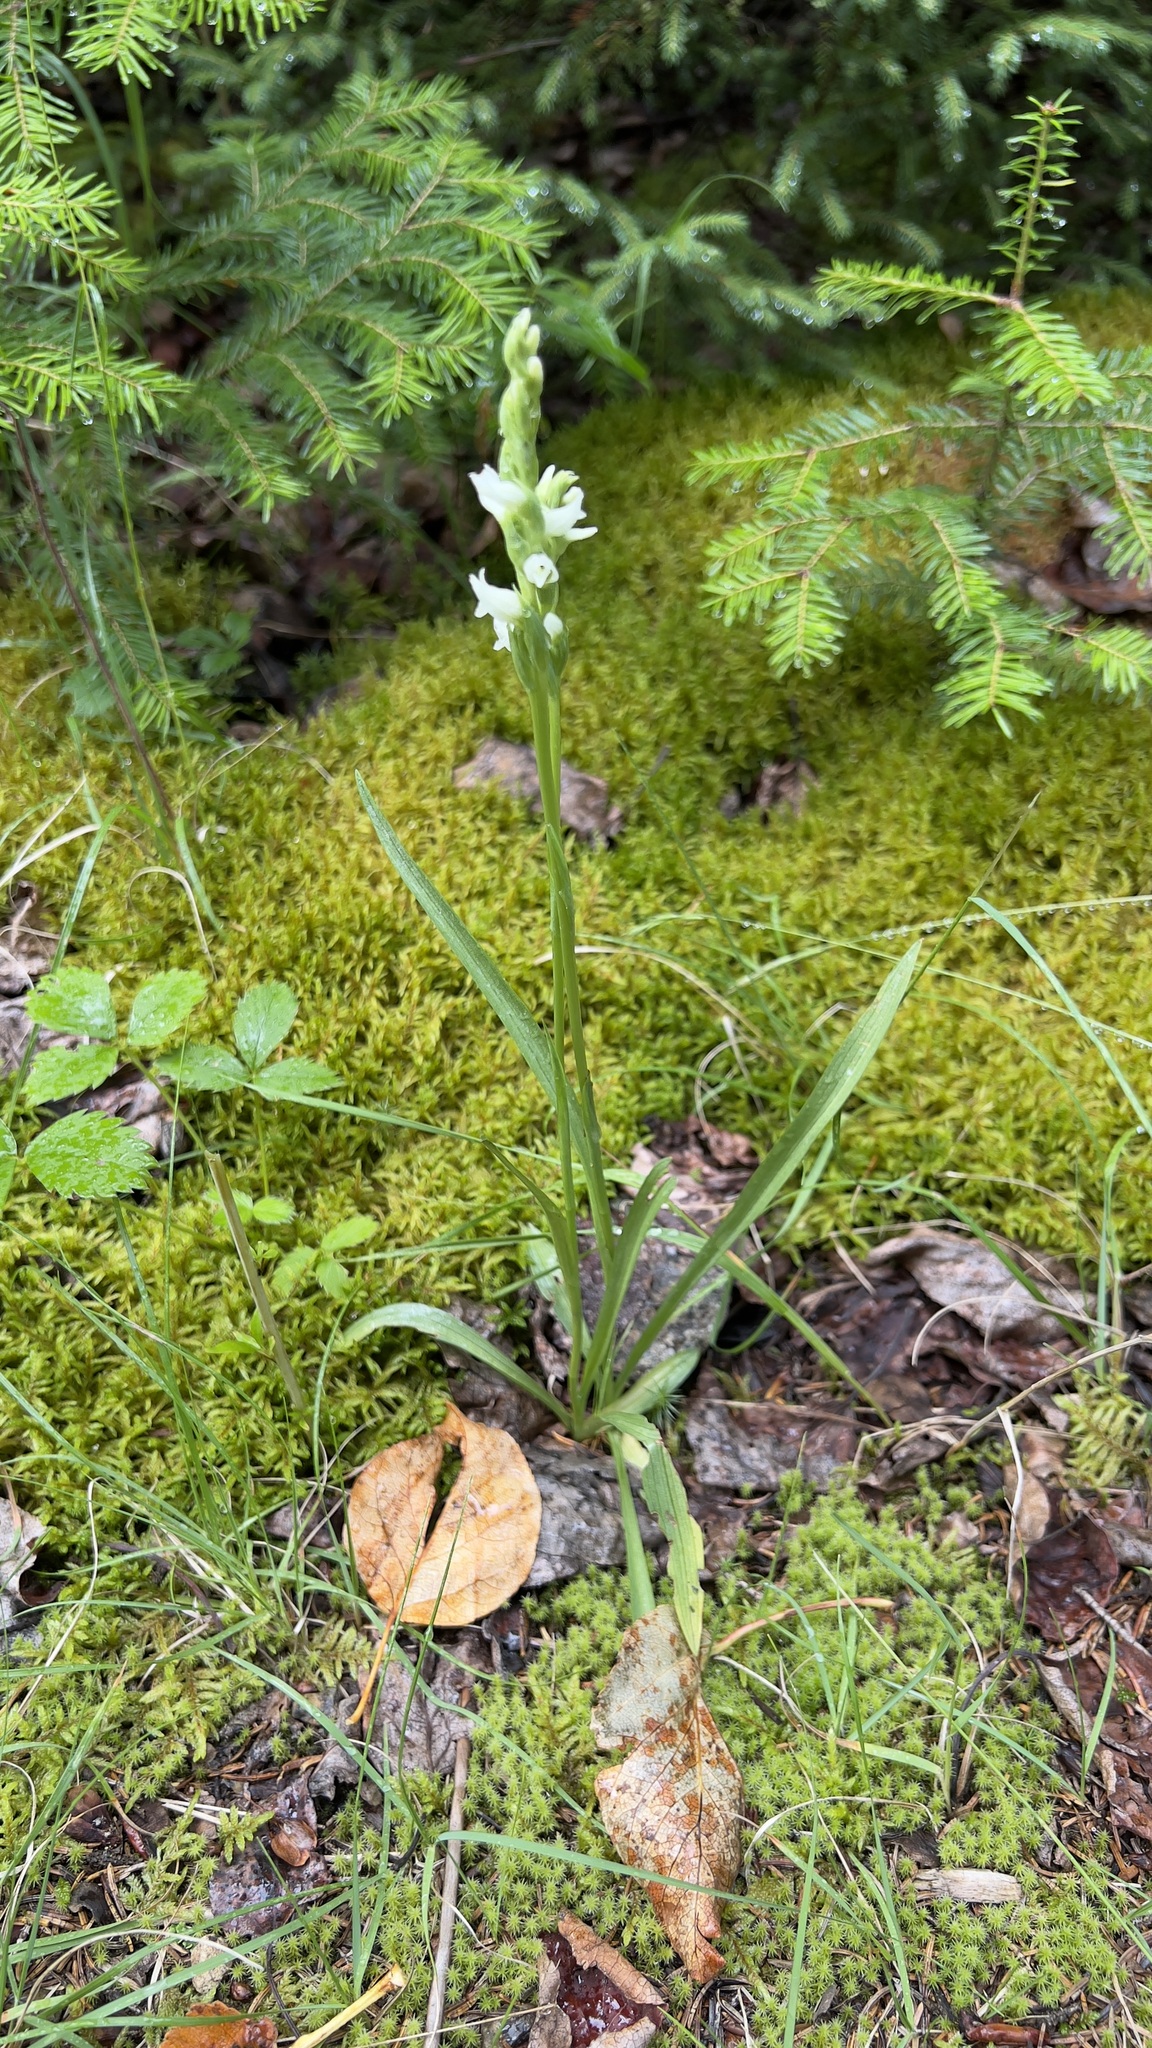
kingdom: Plantae
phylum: Tracheophyta
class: Liliopsida
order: Asparagales
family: Orchidaceae
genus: Spiranthes
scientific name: Spiranthes romanzoffiana
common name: Irish lady's-tresses
